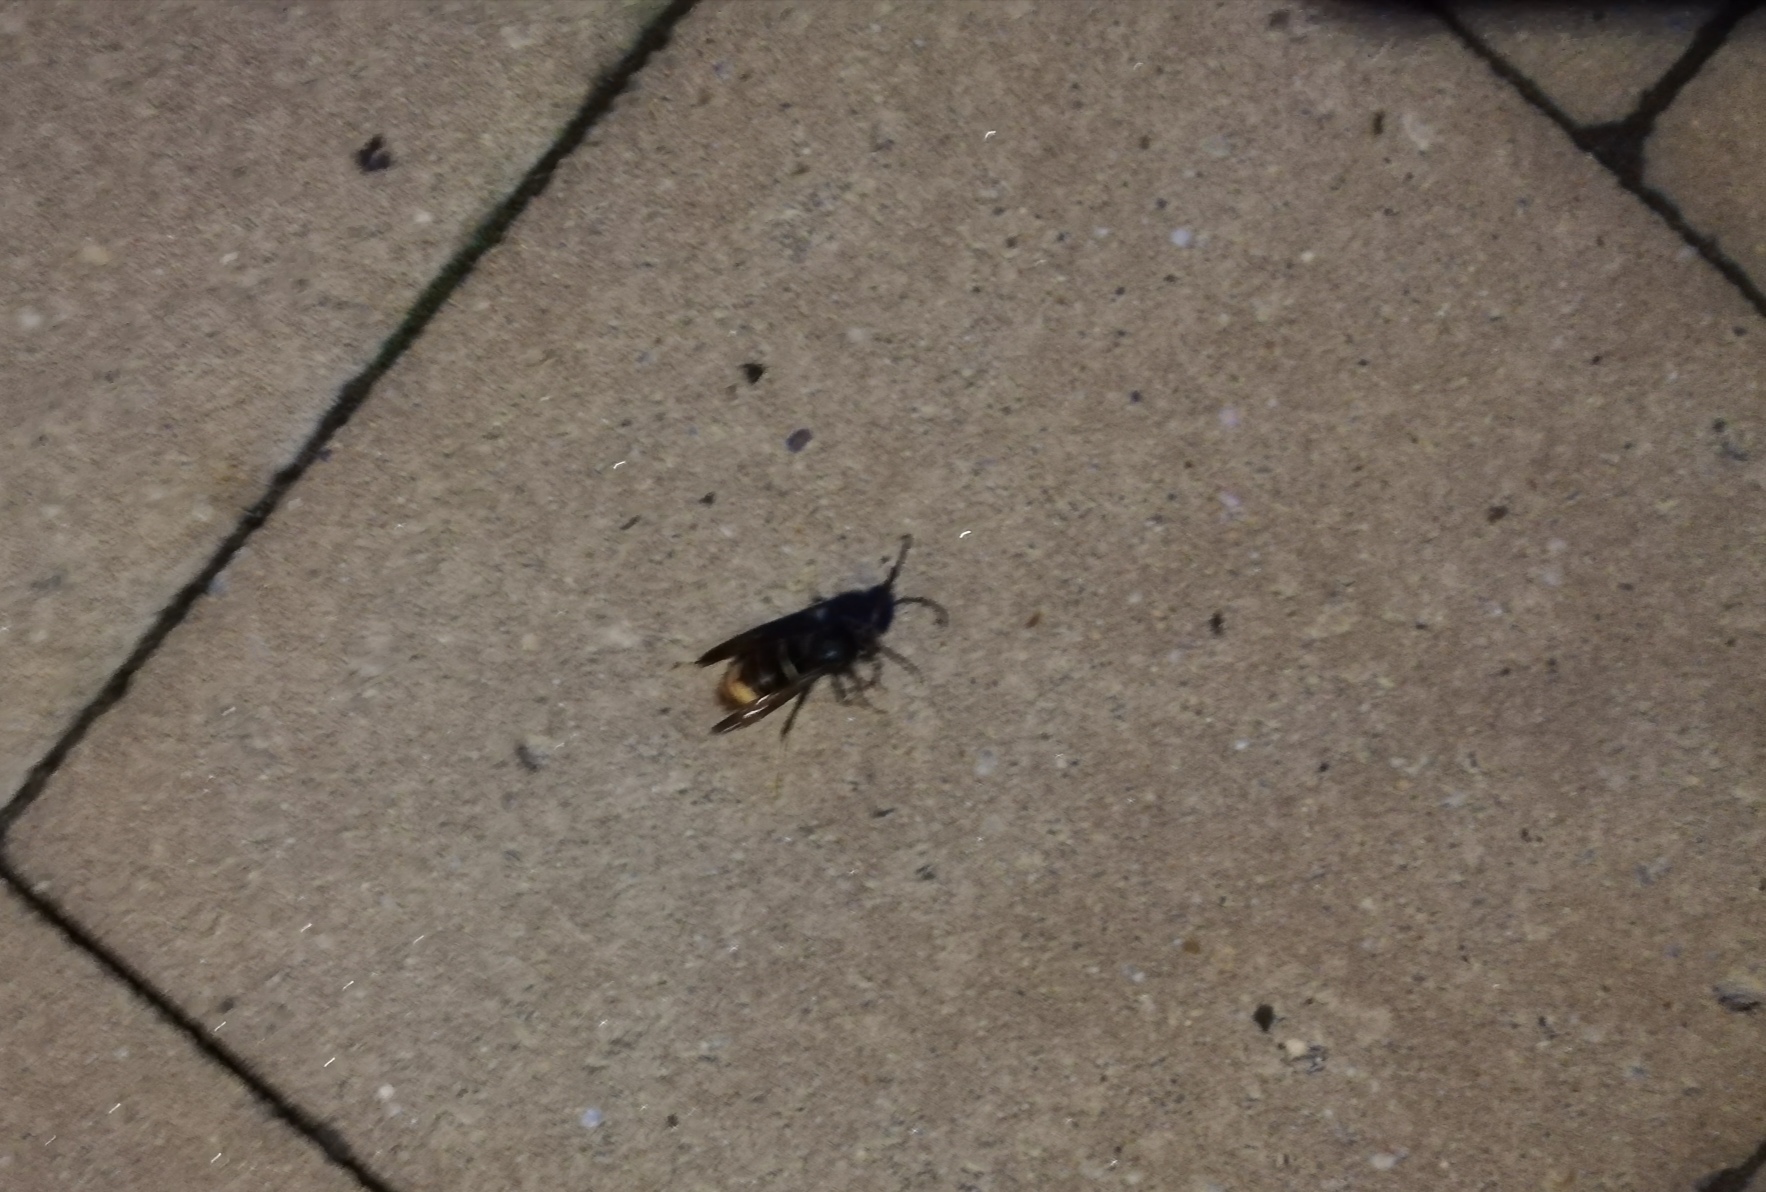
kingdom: Animalia
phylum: Arthropoda
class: Insecta
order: Hymenoptera
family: Vespidae
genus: Vespa
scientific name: Vespa velutina
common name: Asian hornet
